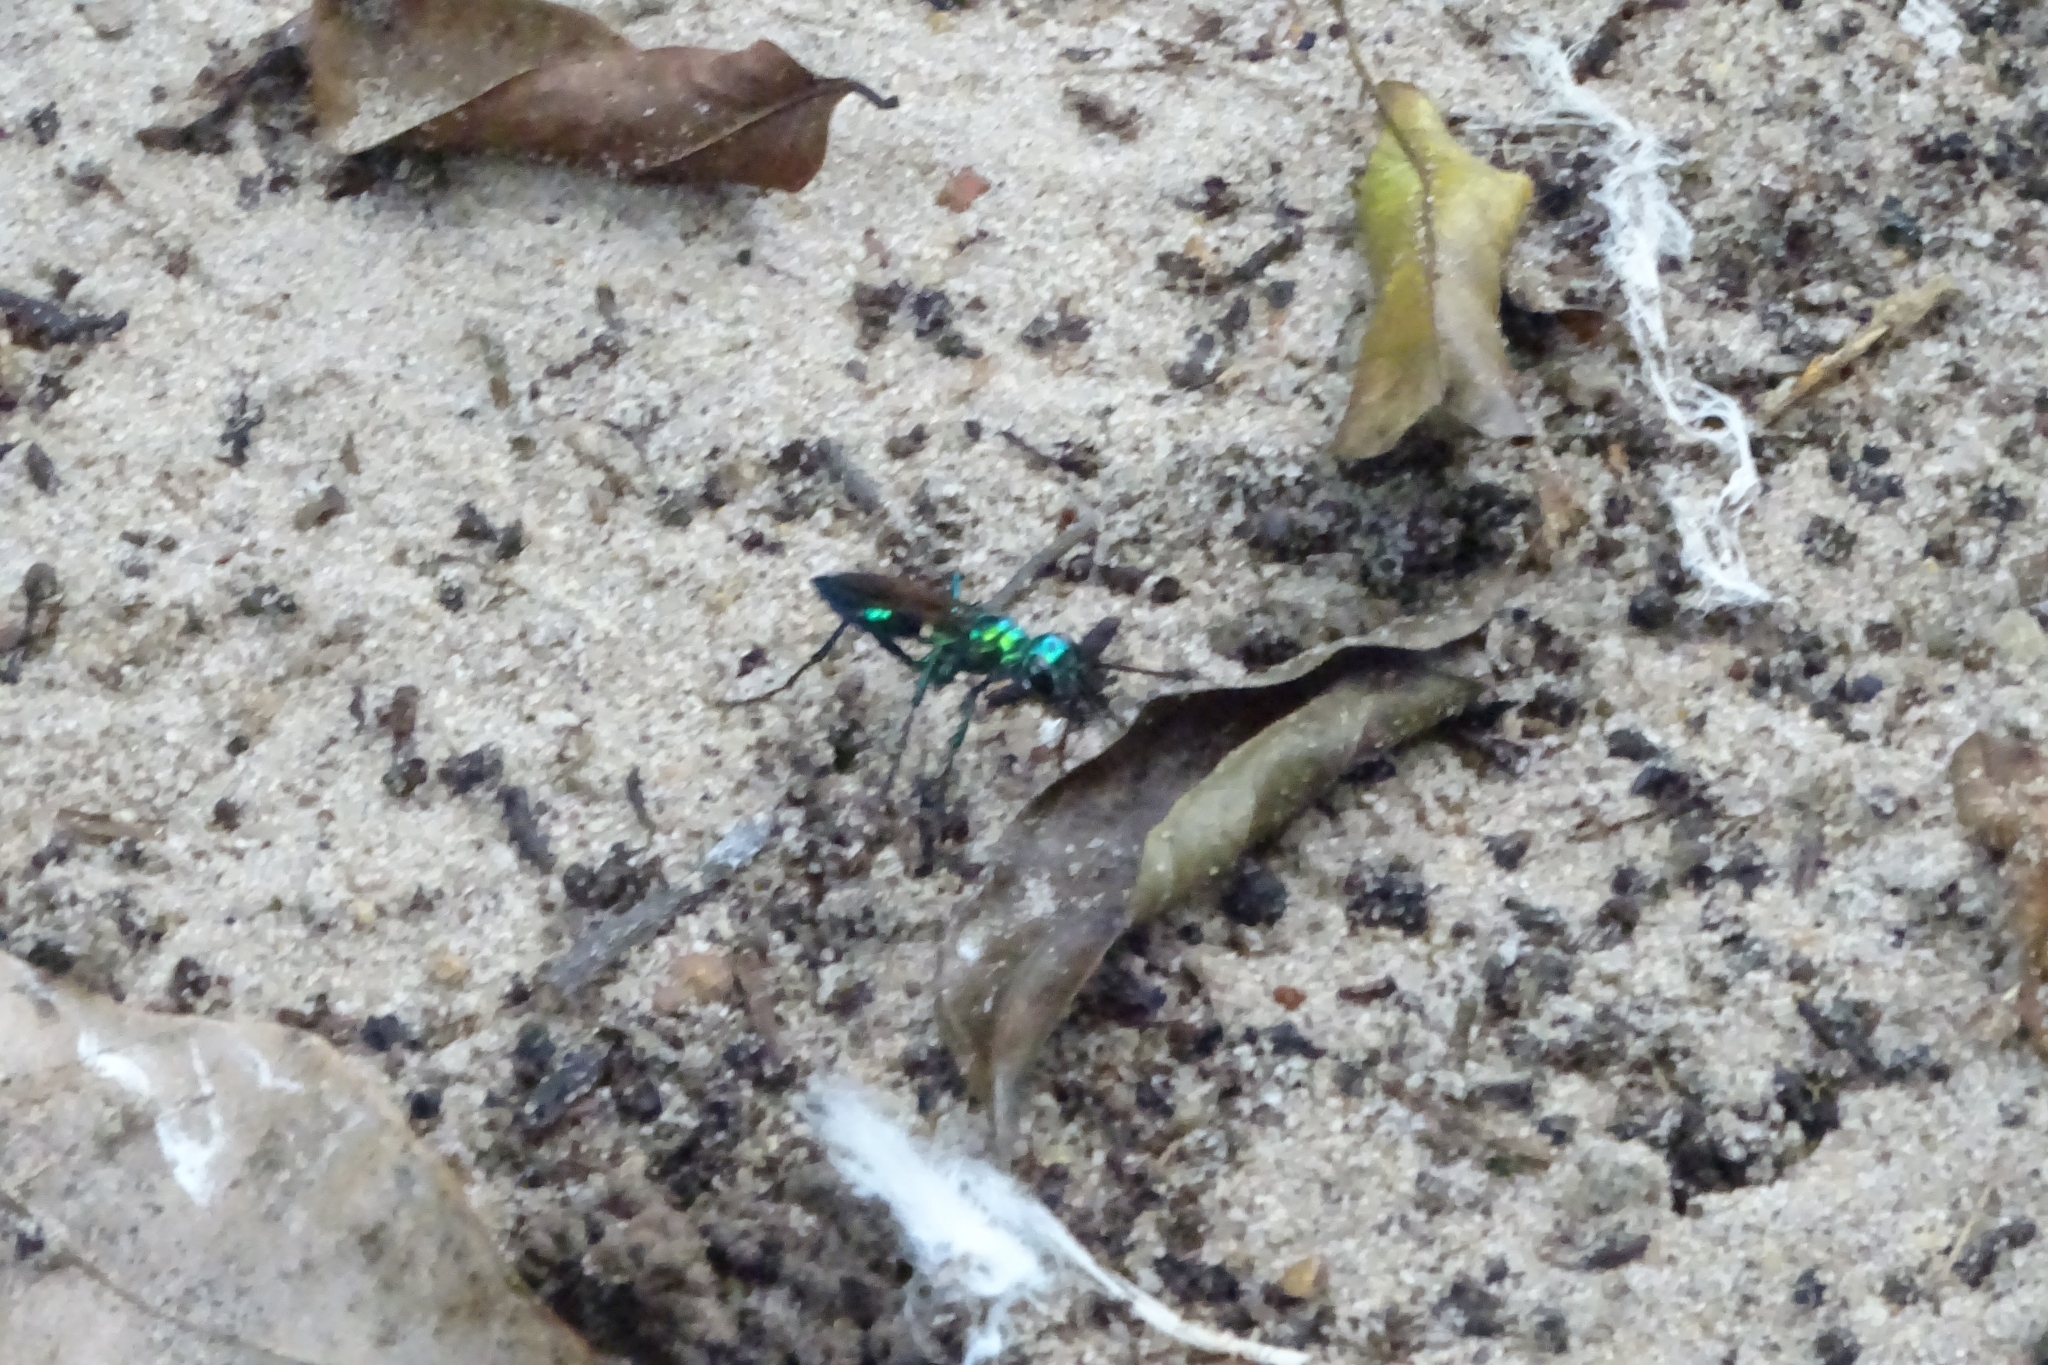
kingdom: Animalia
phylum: Arthropoda
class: Insecta
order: Hymenoptera
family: Sphecidae
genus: Chlorion
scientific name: Chlorion lobatum
